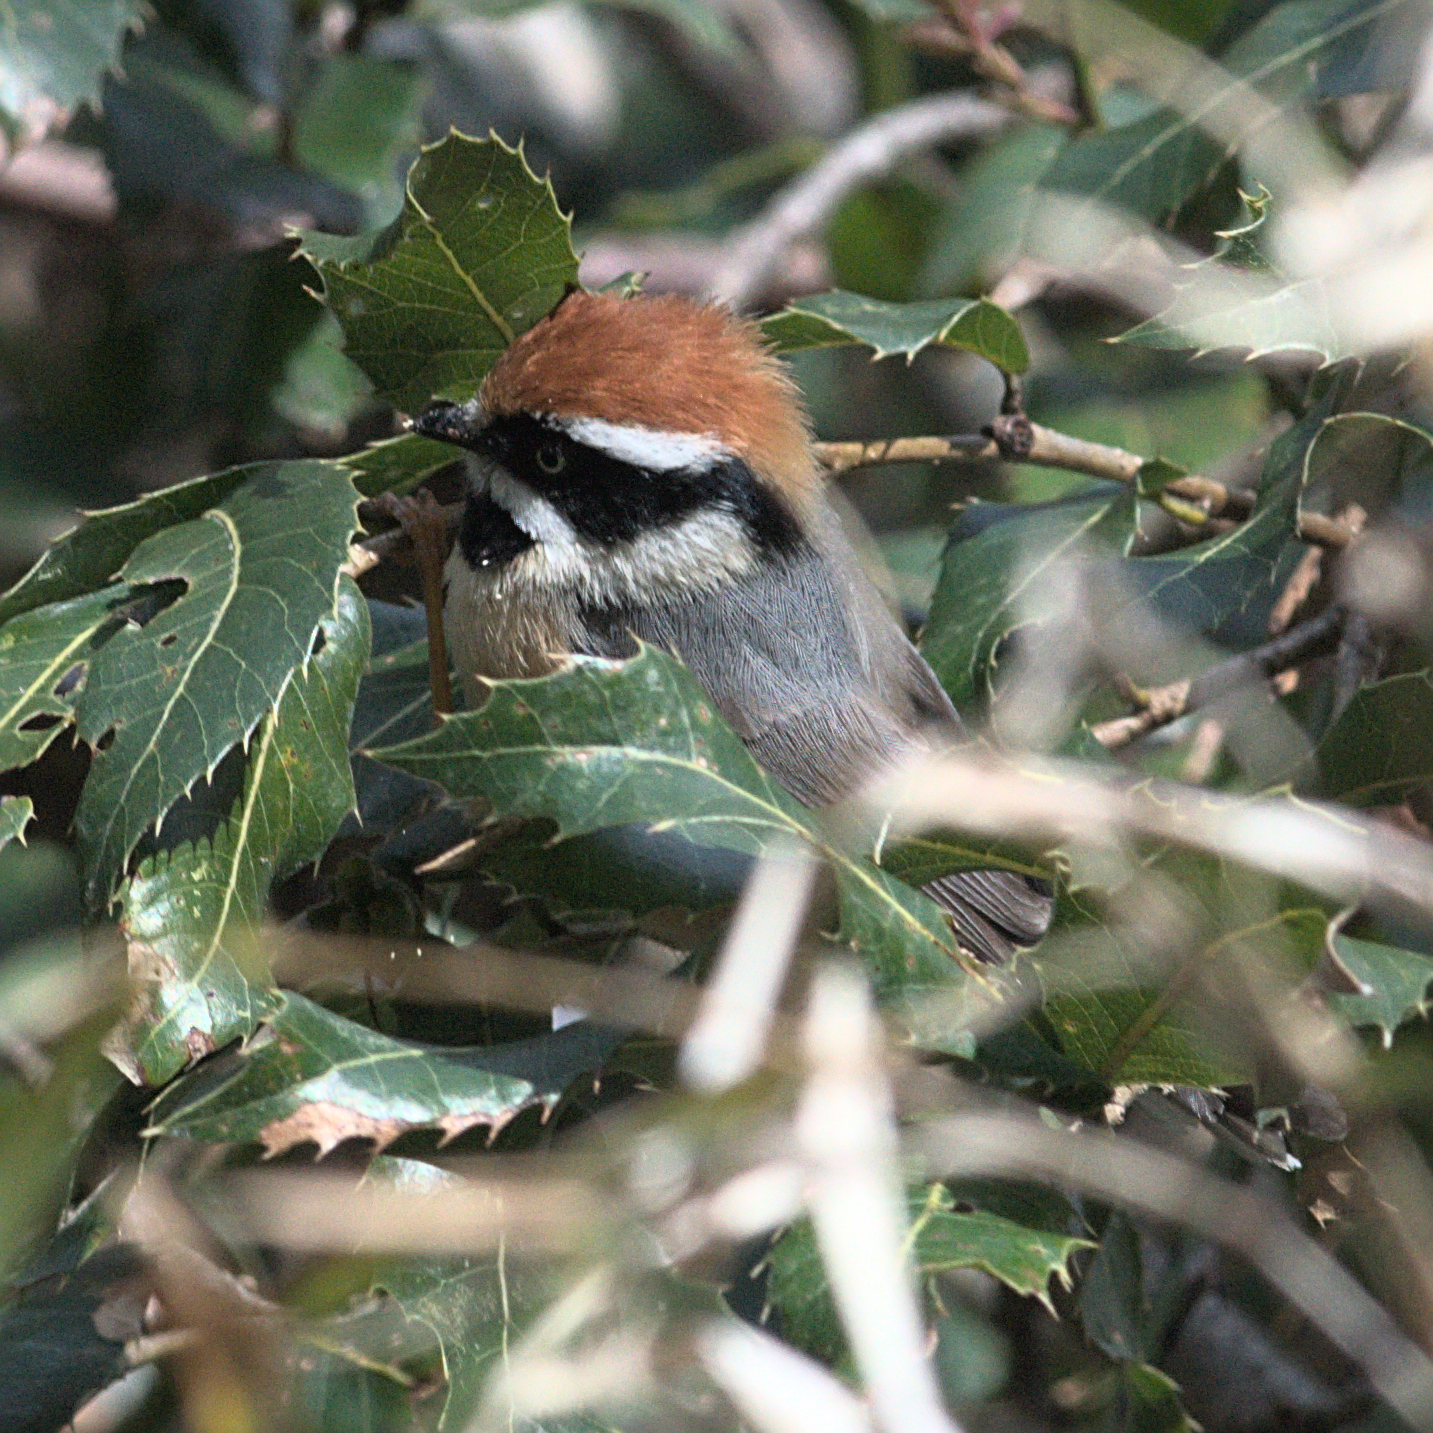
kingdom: Animalia
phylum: Chordata
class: Aves
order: Passeriformes
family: Aegithalidae
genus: Aegithalos
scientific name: Aegithalos concinnus
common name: Black-throated bushtit
